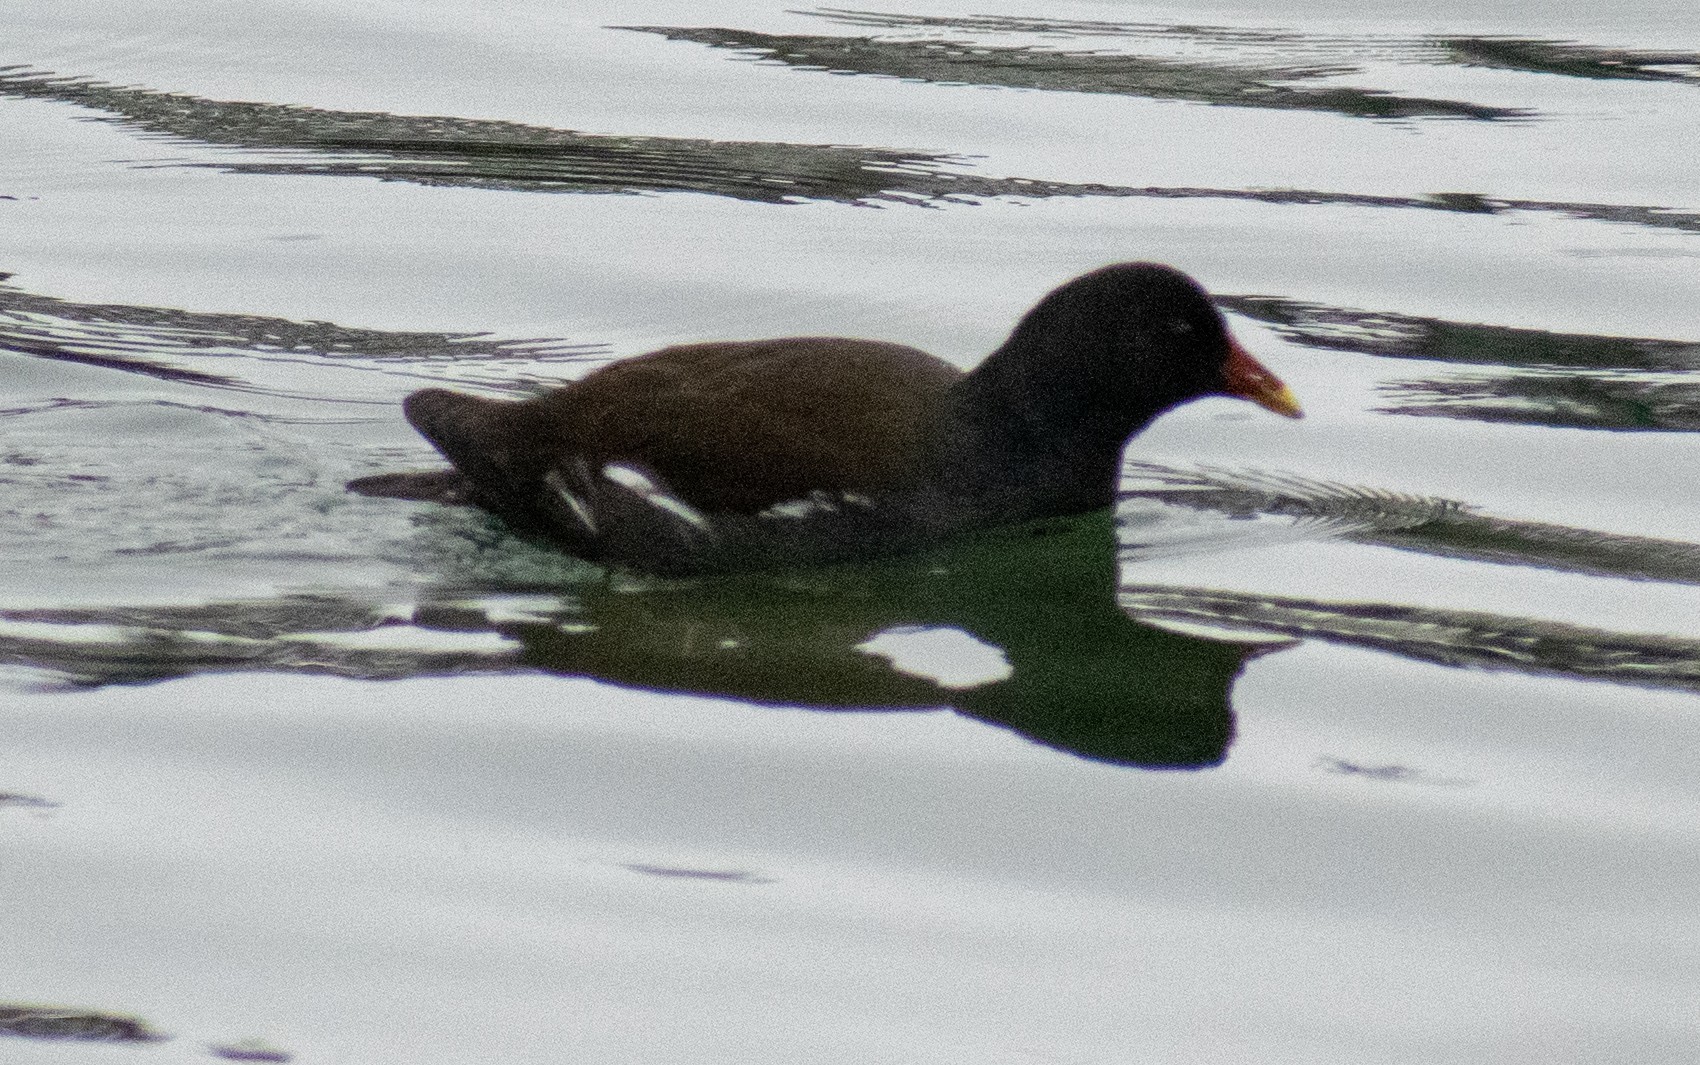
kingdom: Animalia
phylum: Chordata
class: Aves
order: Gruiformes
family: Rallidae
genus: Gallinula
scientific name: Gallinula chloropus
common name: Common moorhen
